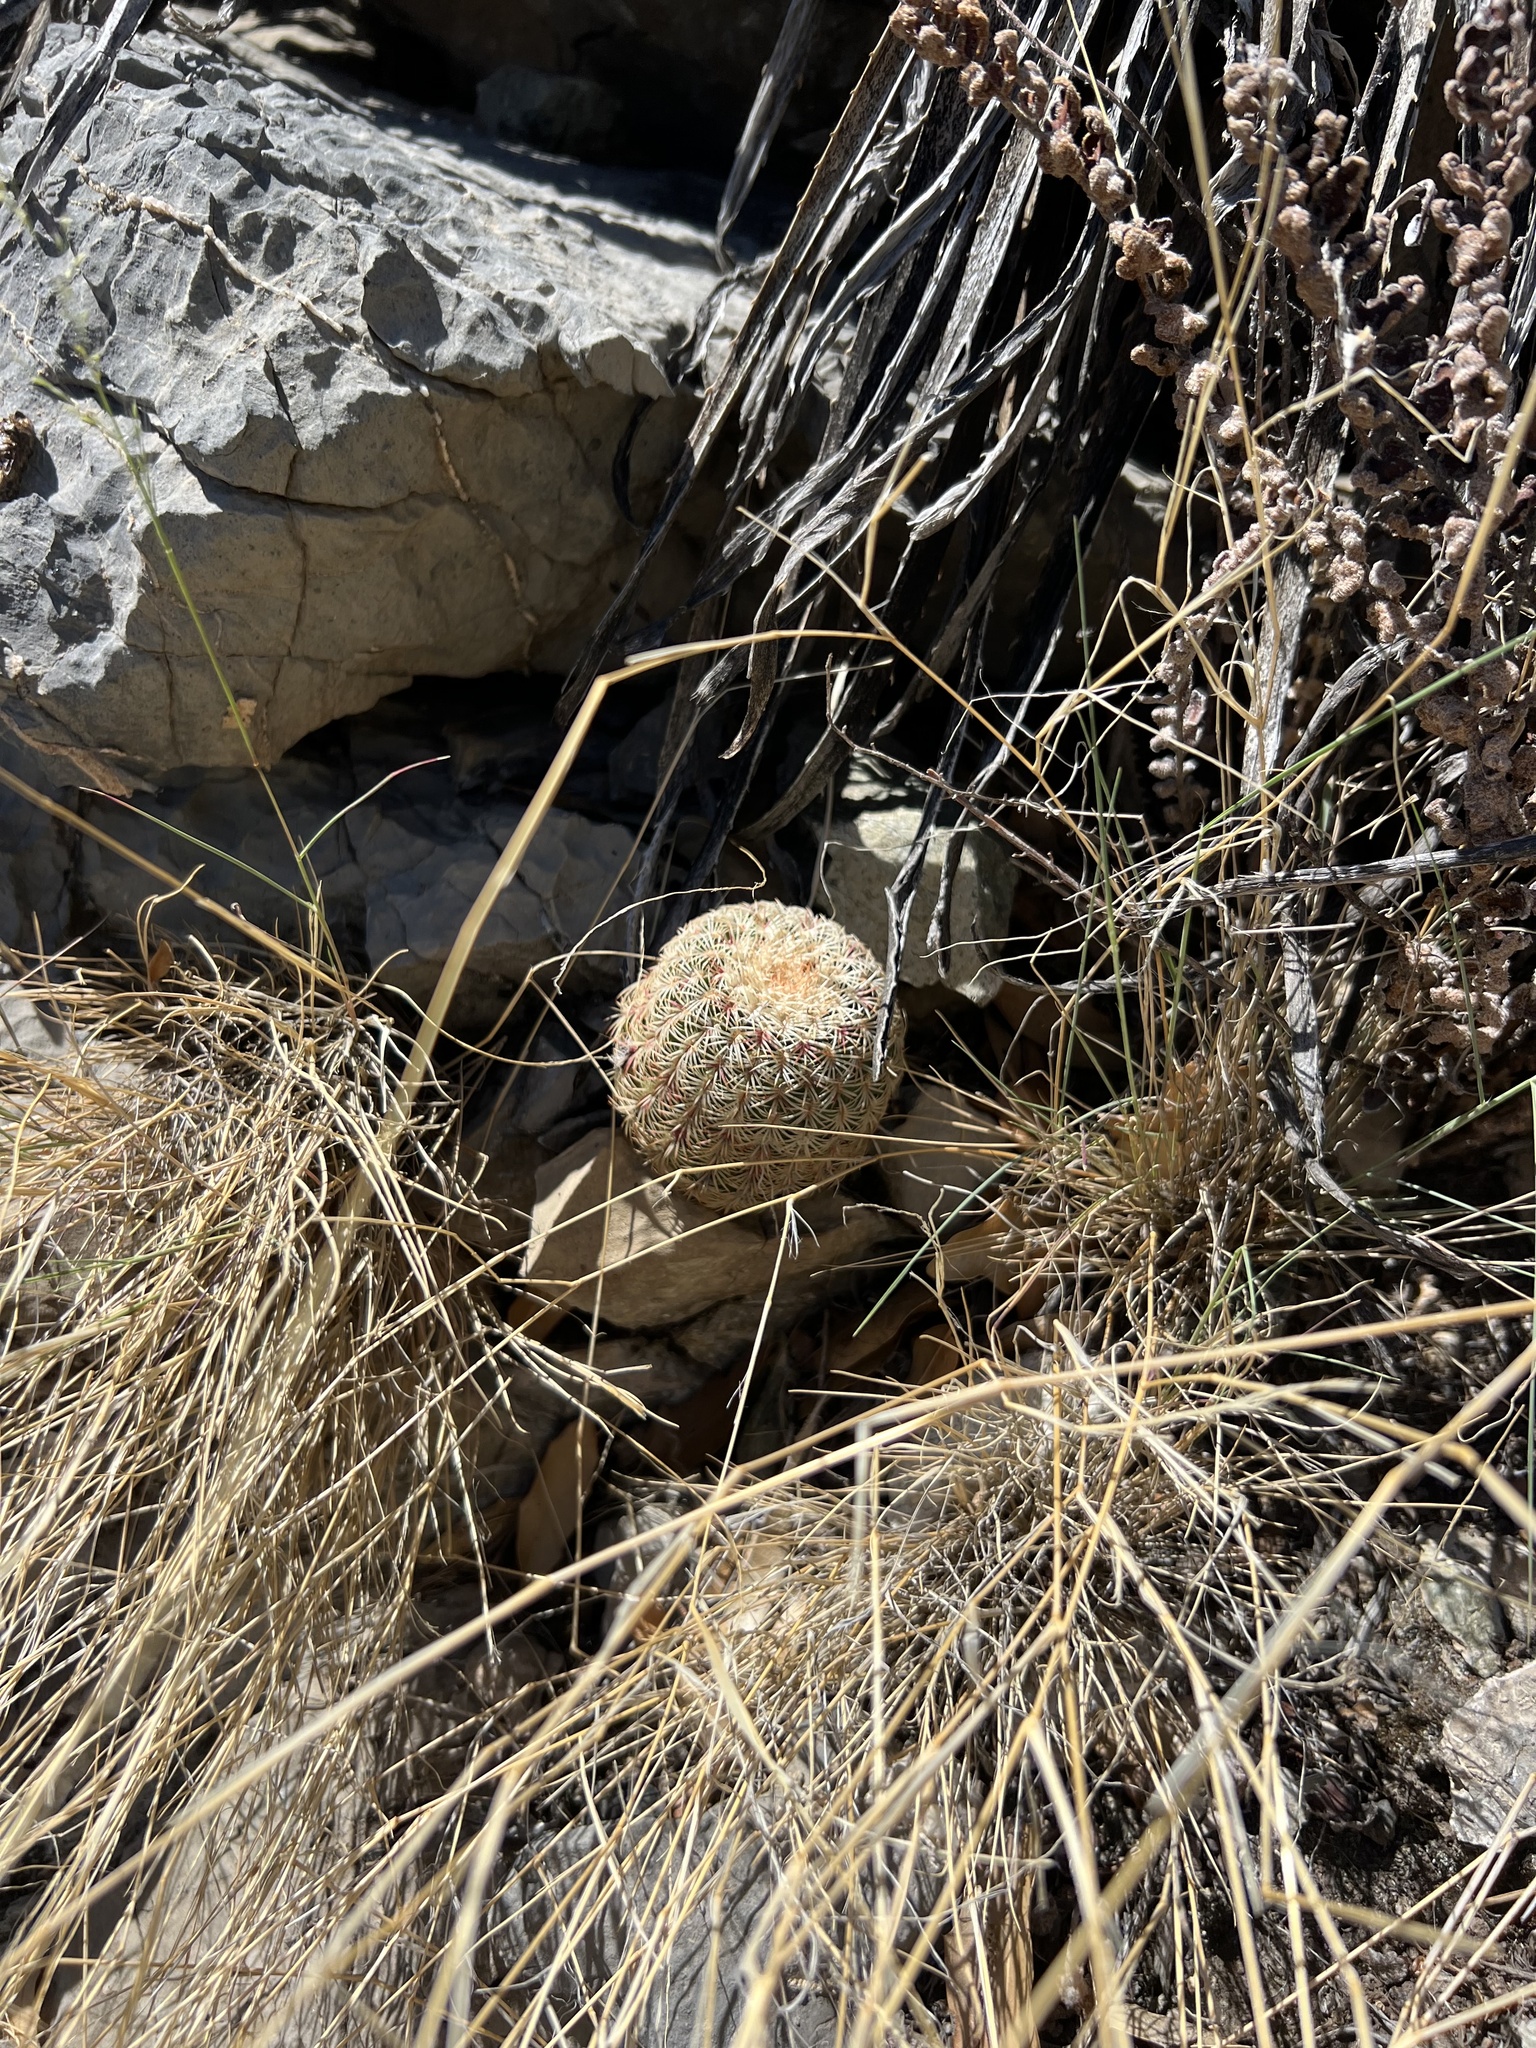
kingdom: Plantae
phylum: Tracheophyta
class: Magnoliopsida
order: Caryophyllales
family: Cactaceae
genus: Echinocereus
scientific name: Echinocereus rigidissimus
